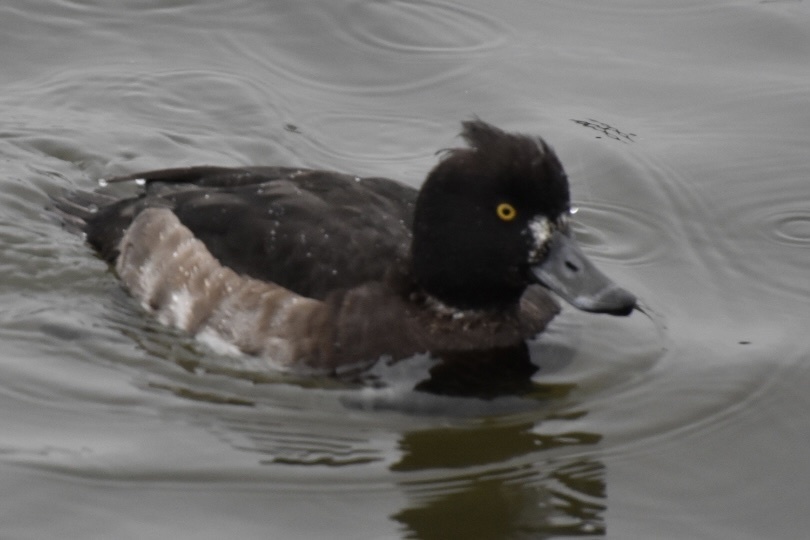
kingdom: Animalia
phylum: Chordata
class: Aves
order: Anseriformes
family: Anatidae
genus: Aythya
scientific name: Aythya fuligula
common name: Tufted duck
